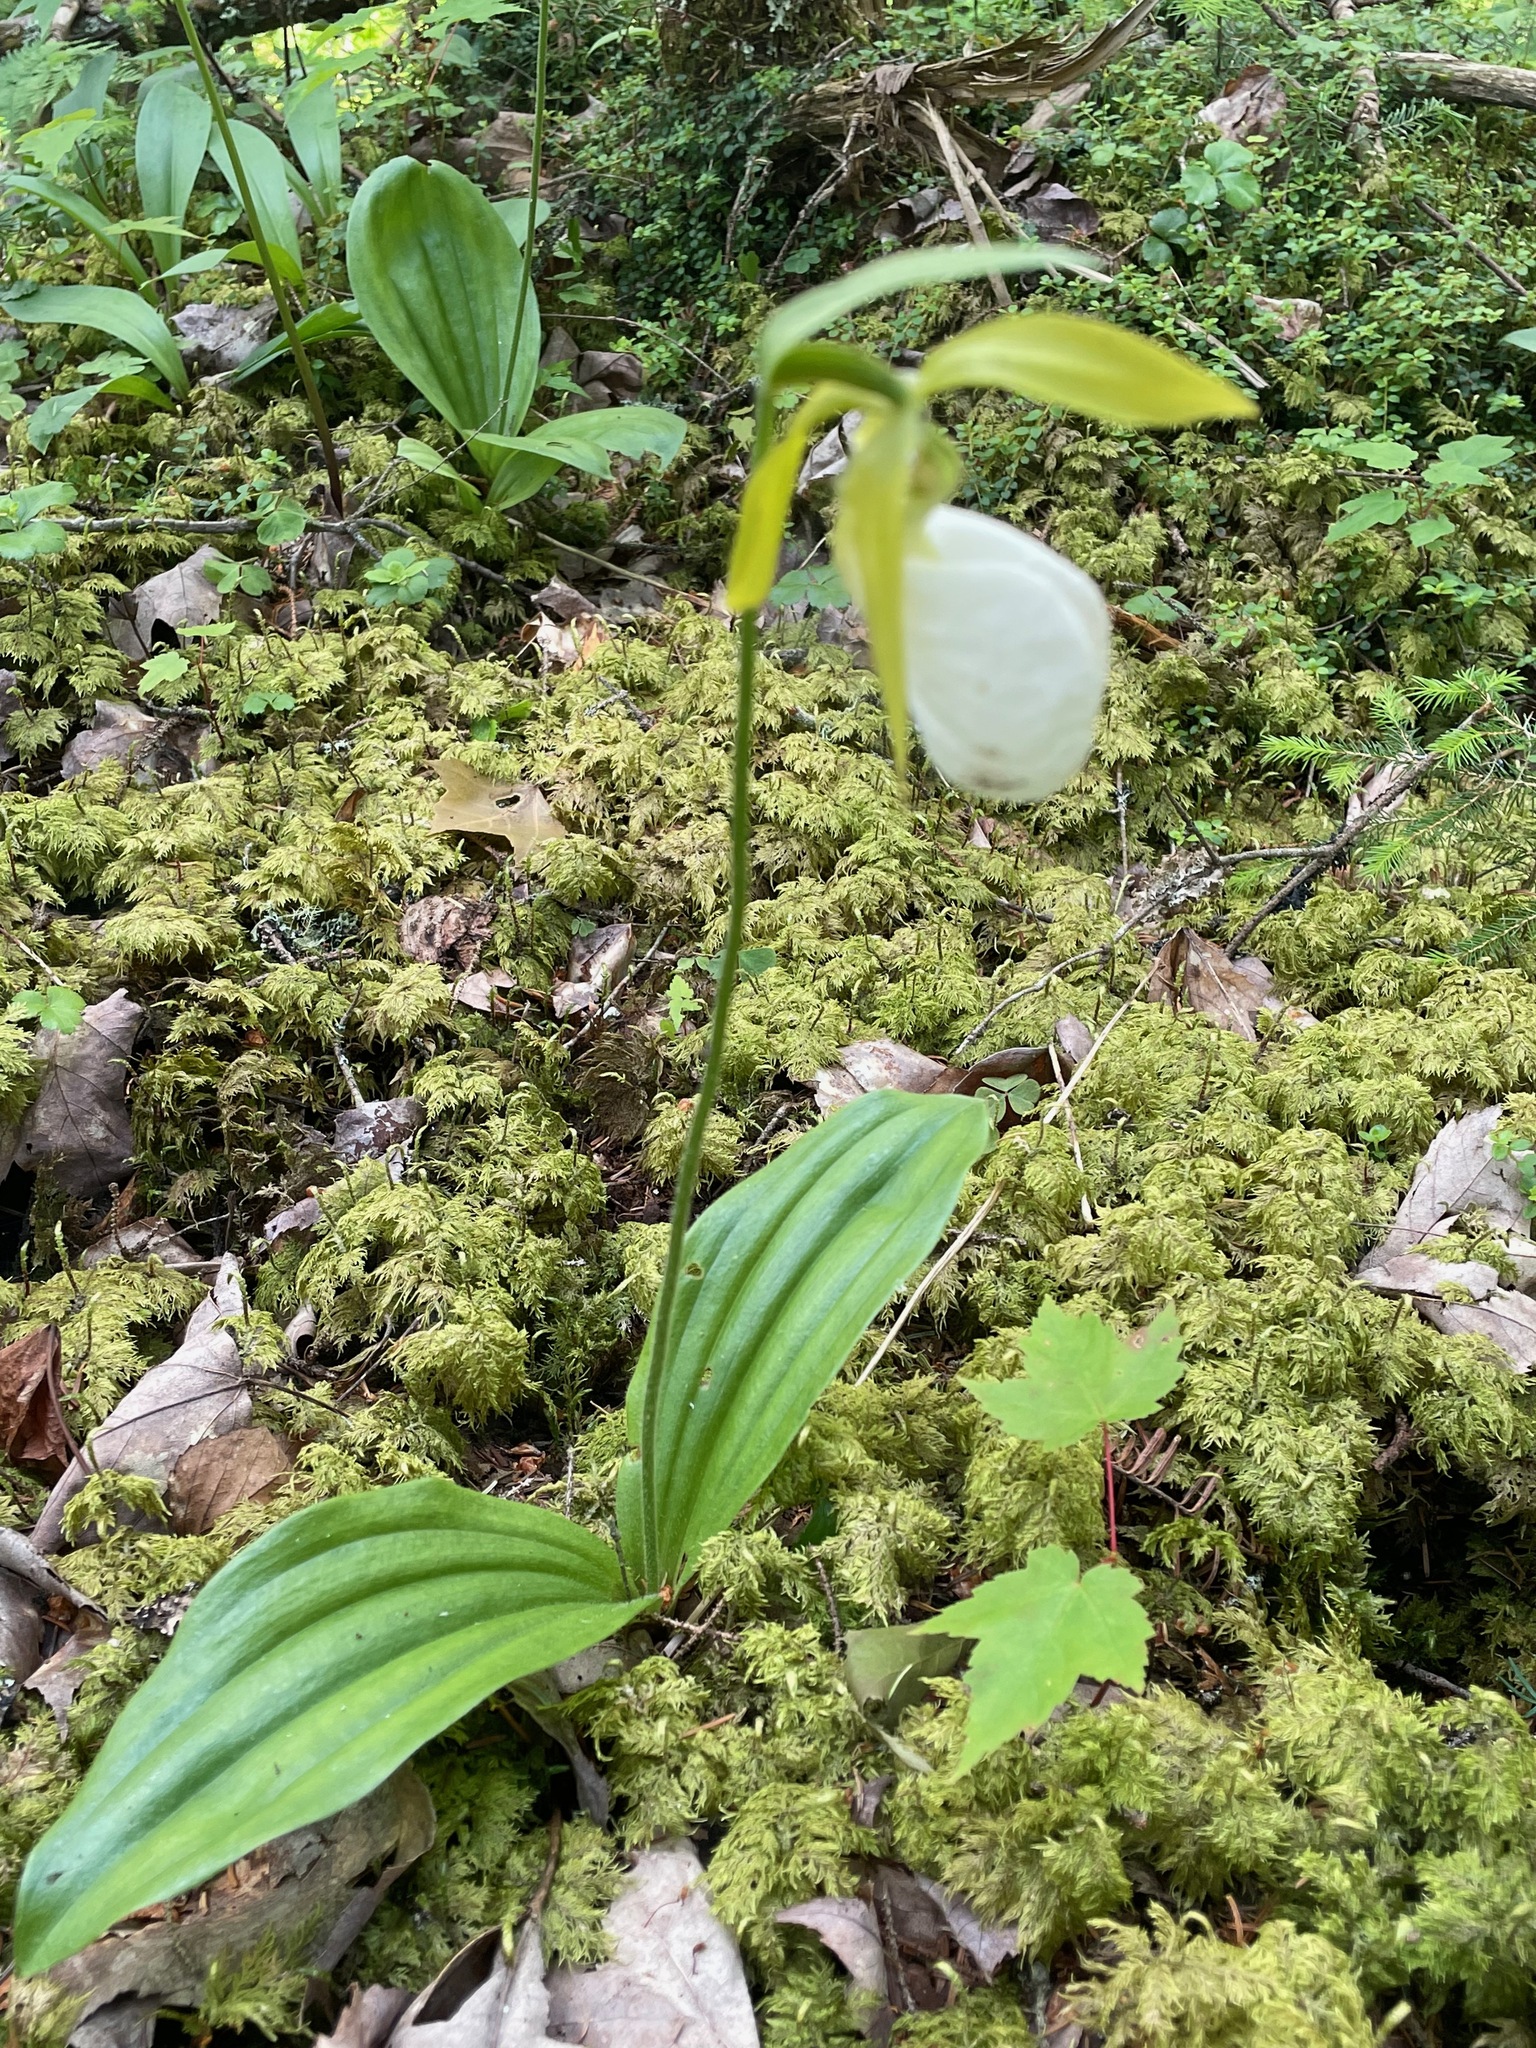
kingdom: Plantae
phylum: Tracheophyta
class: Liliopsida
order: Asparagales
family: Orchidaceae
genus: Cypripedium
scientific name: Cypripedium acaule
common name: Pink lady's-slipper
